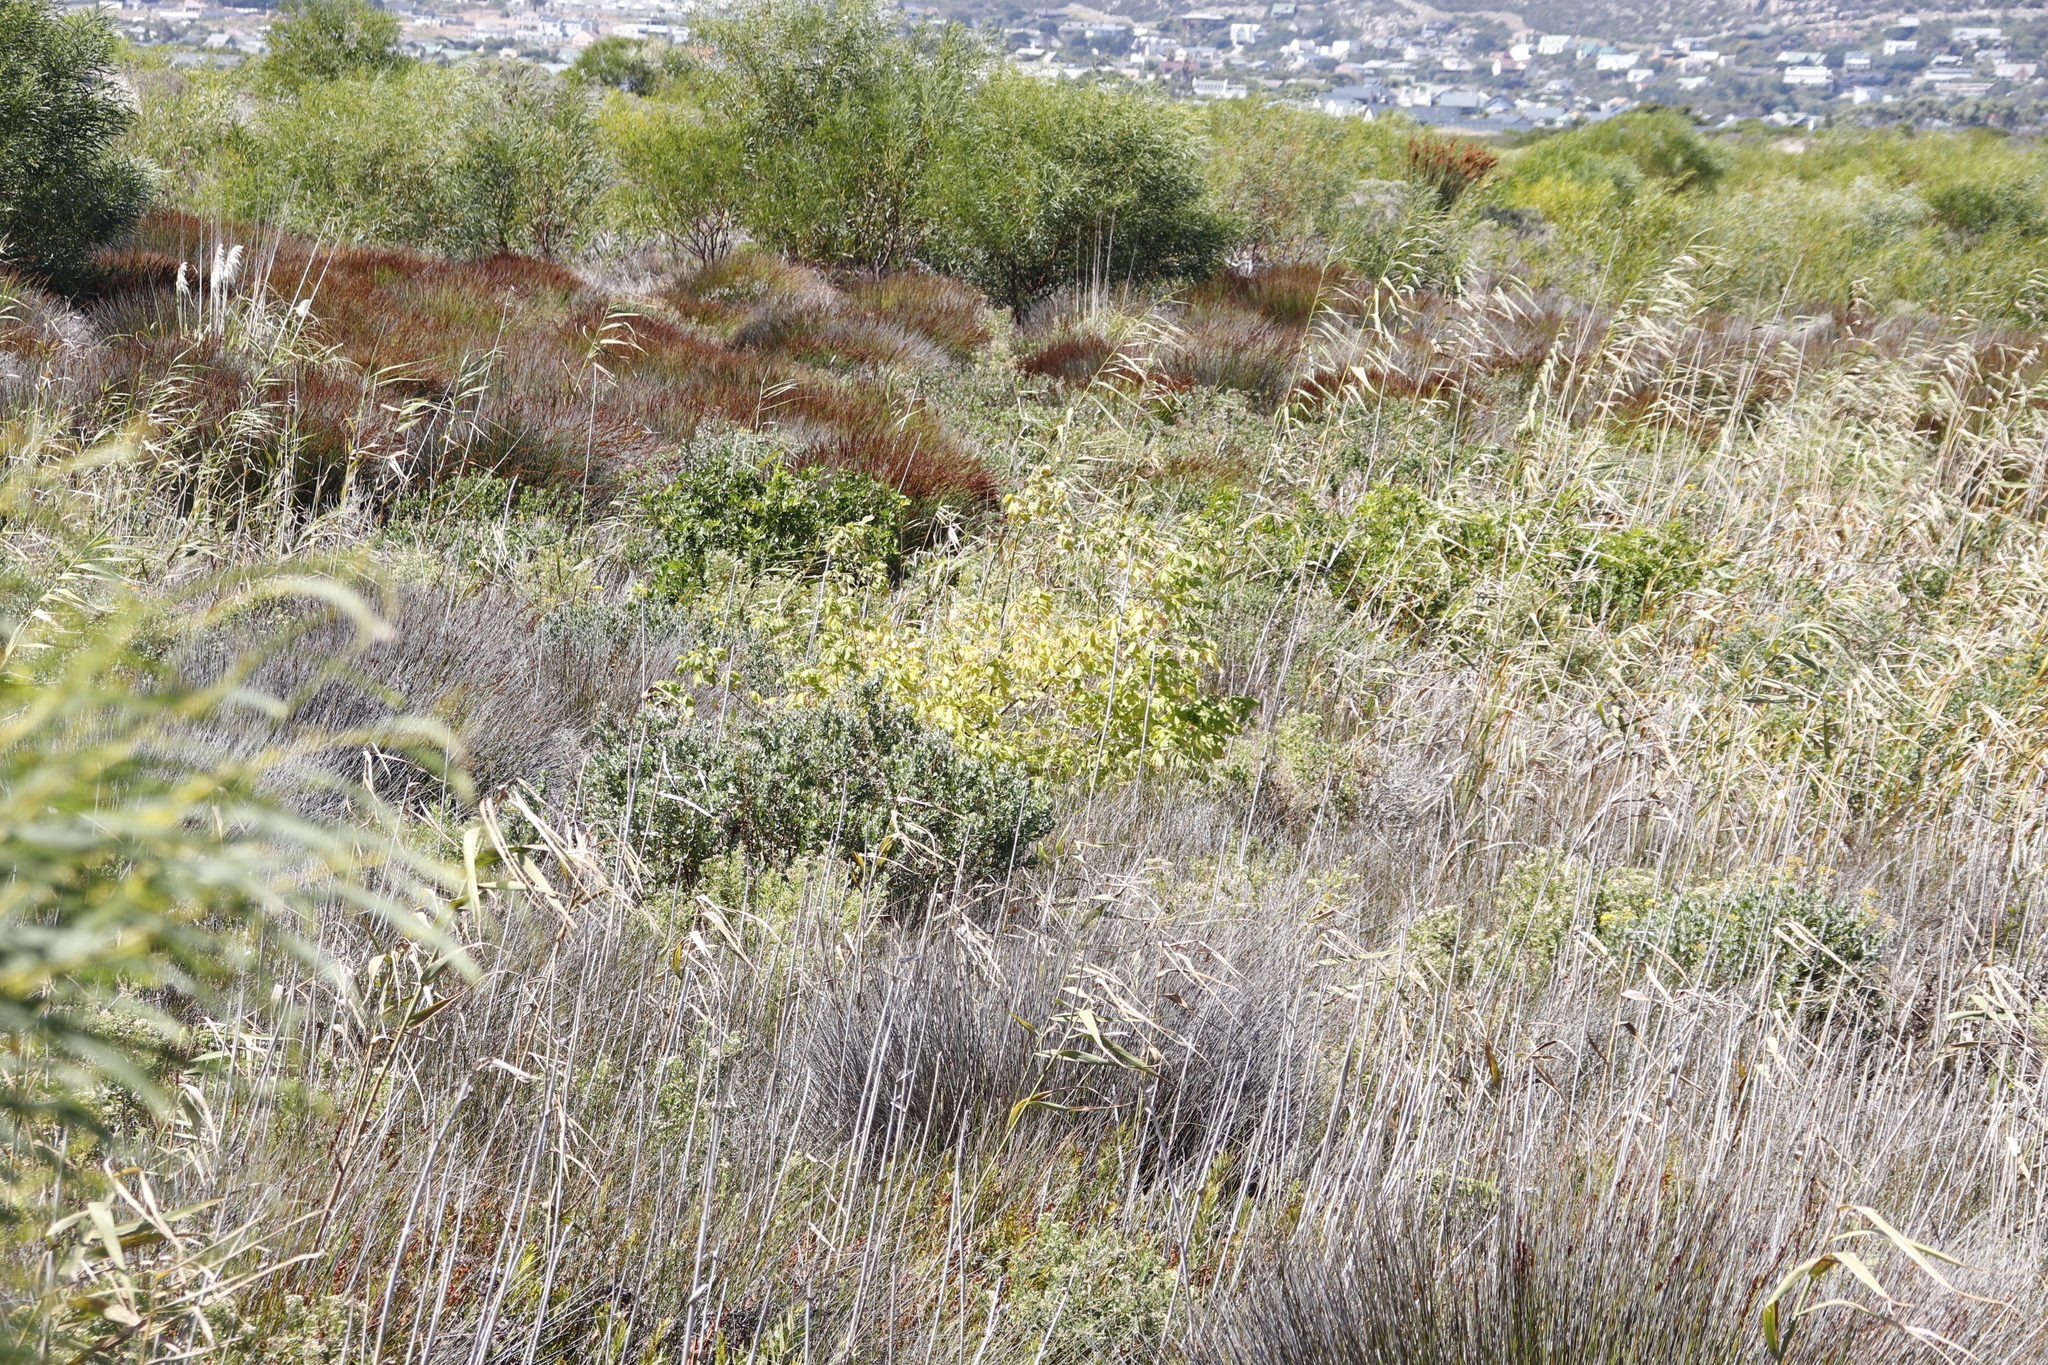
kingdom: Plantae
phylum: Tracheophyta
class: Liliopsida
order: Poales
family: Poaceae
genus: Phragmites
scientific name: Phragmites australis
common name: Common reed
